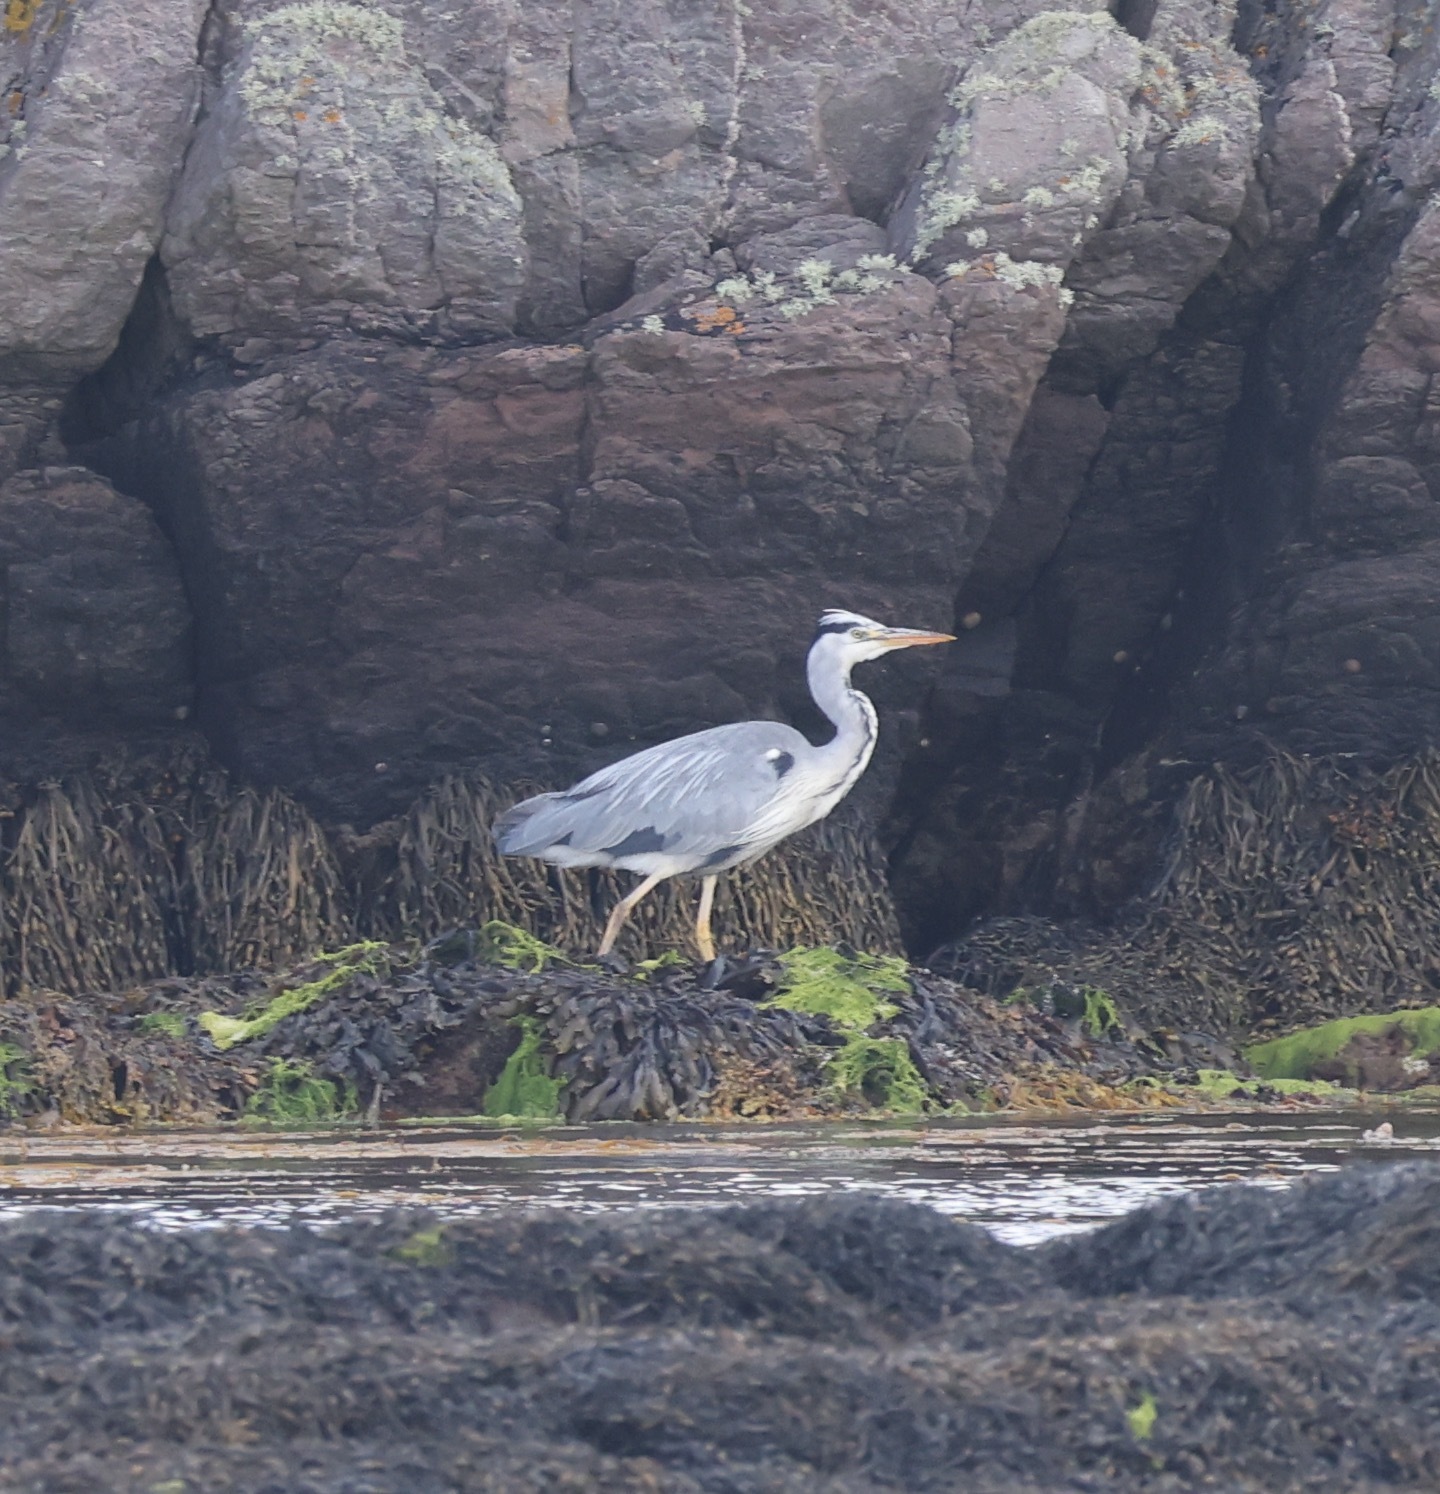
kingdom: Animalia
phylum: Chordata
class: Aves
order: Pelecaniformes
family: Ardeidae
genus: Ardea
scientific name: Ardea cinerea
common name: Grey heron
